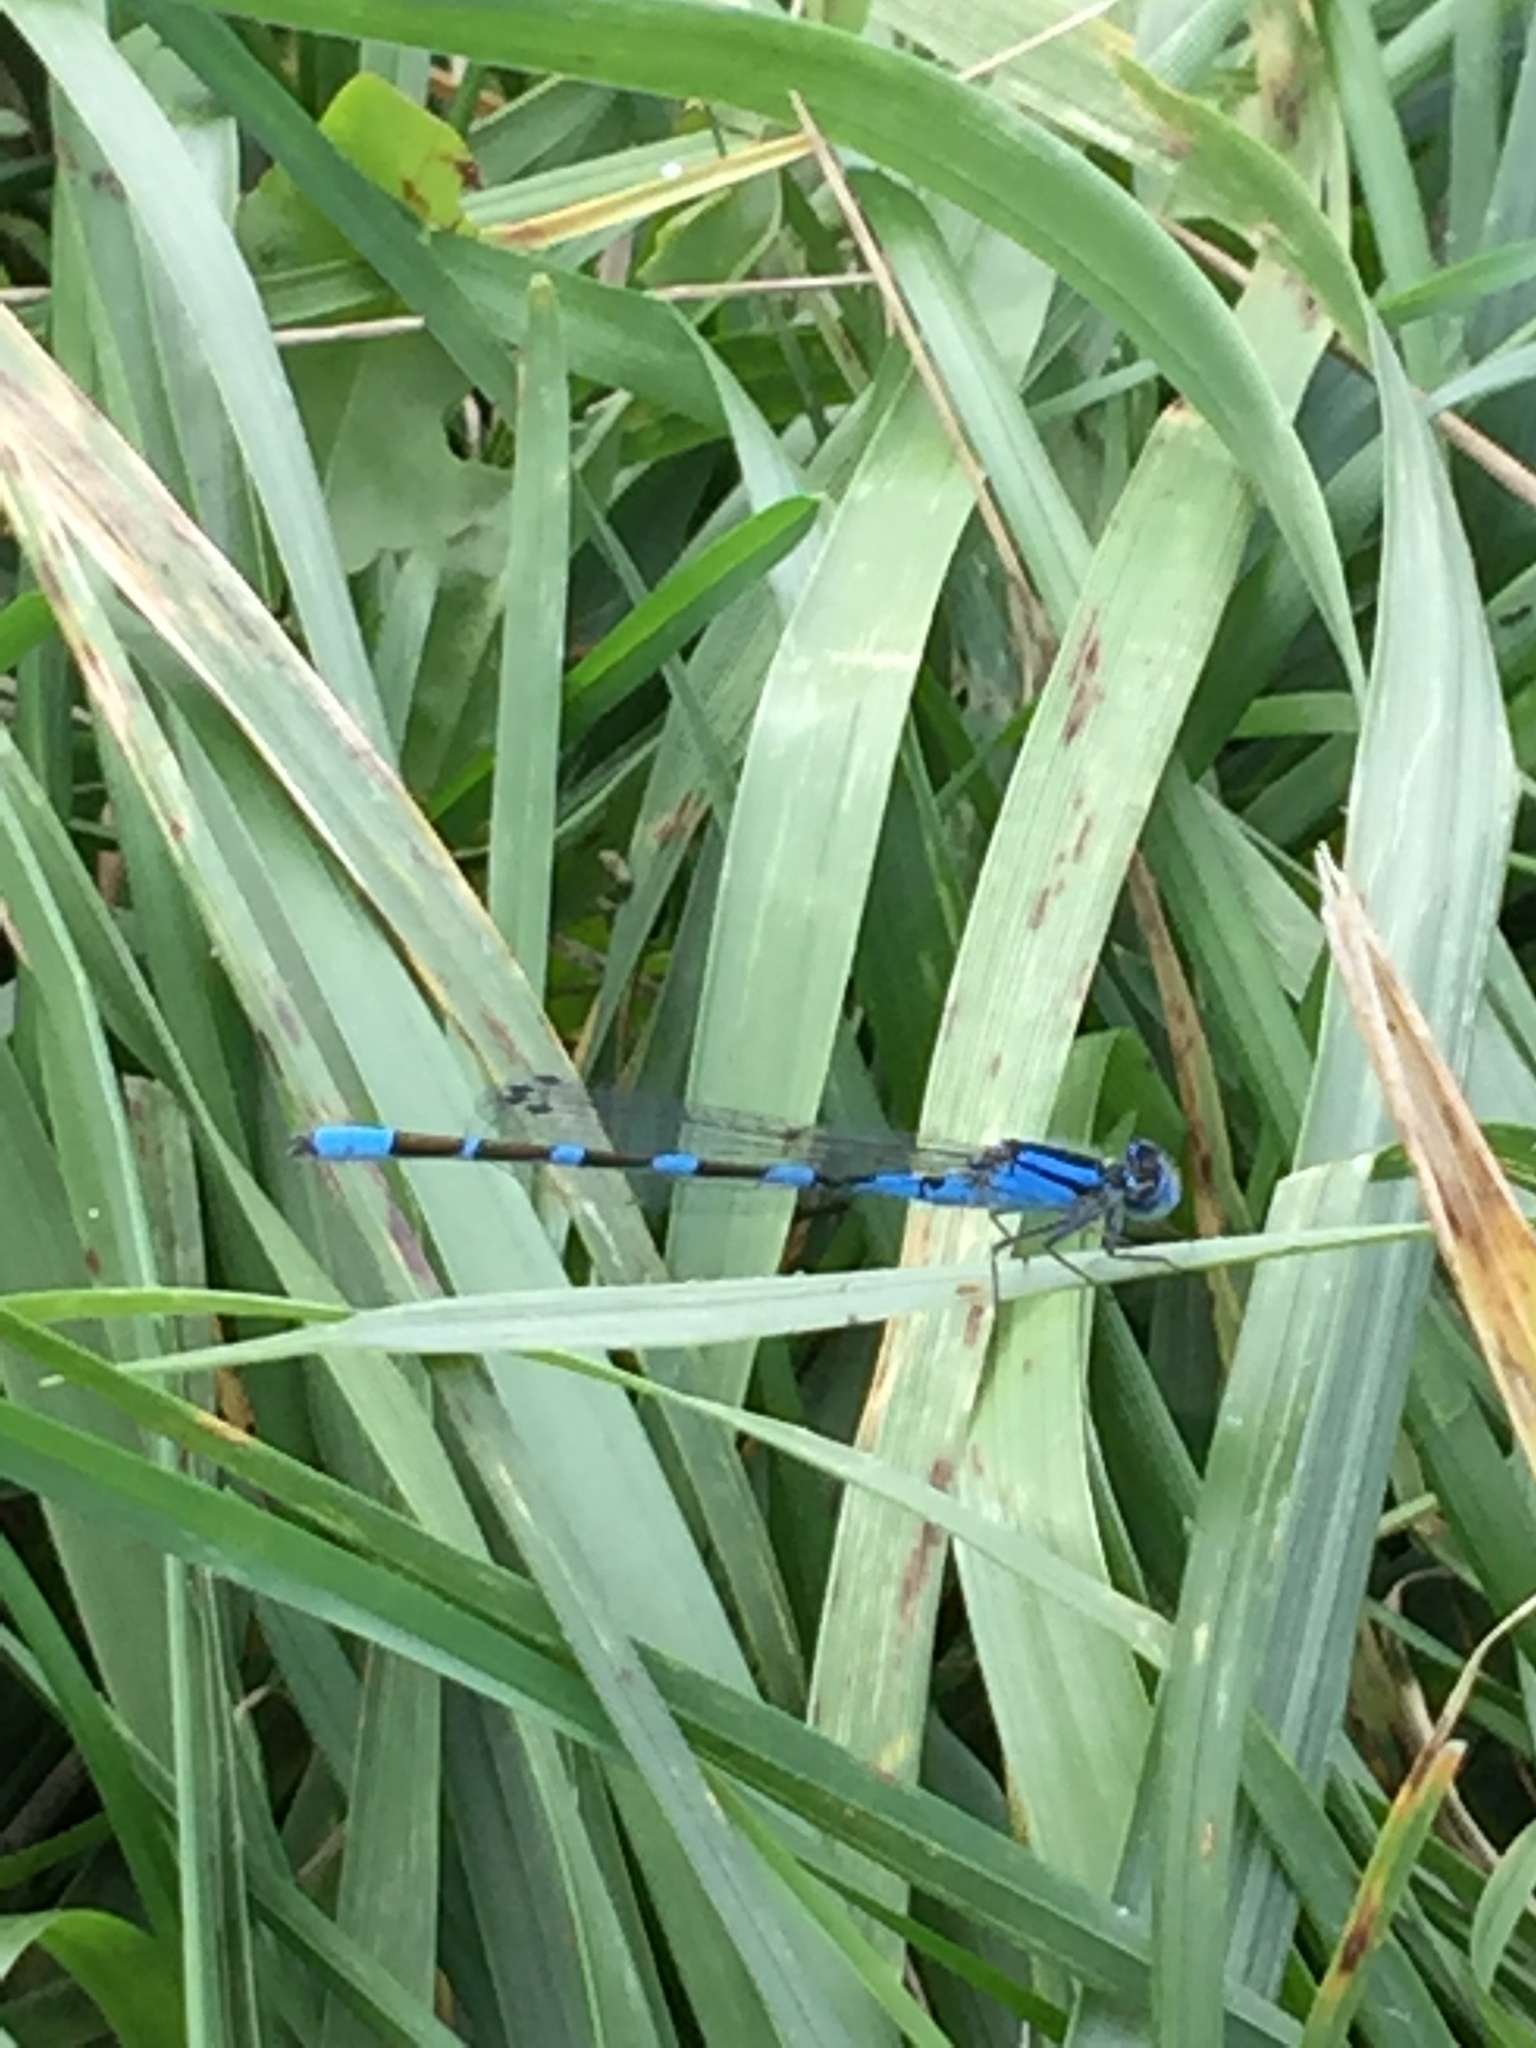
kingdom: Animalia
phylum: Arthropoda
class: Insecta
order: Odonata
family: Coenagrionidae
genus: Enallagma
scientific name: Enallagma civile
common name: Damselfly
